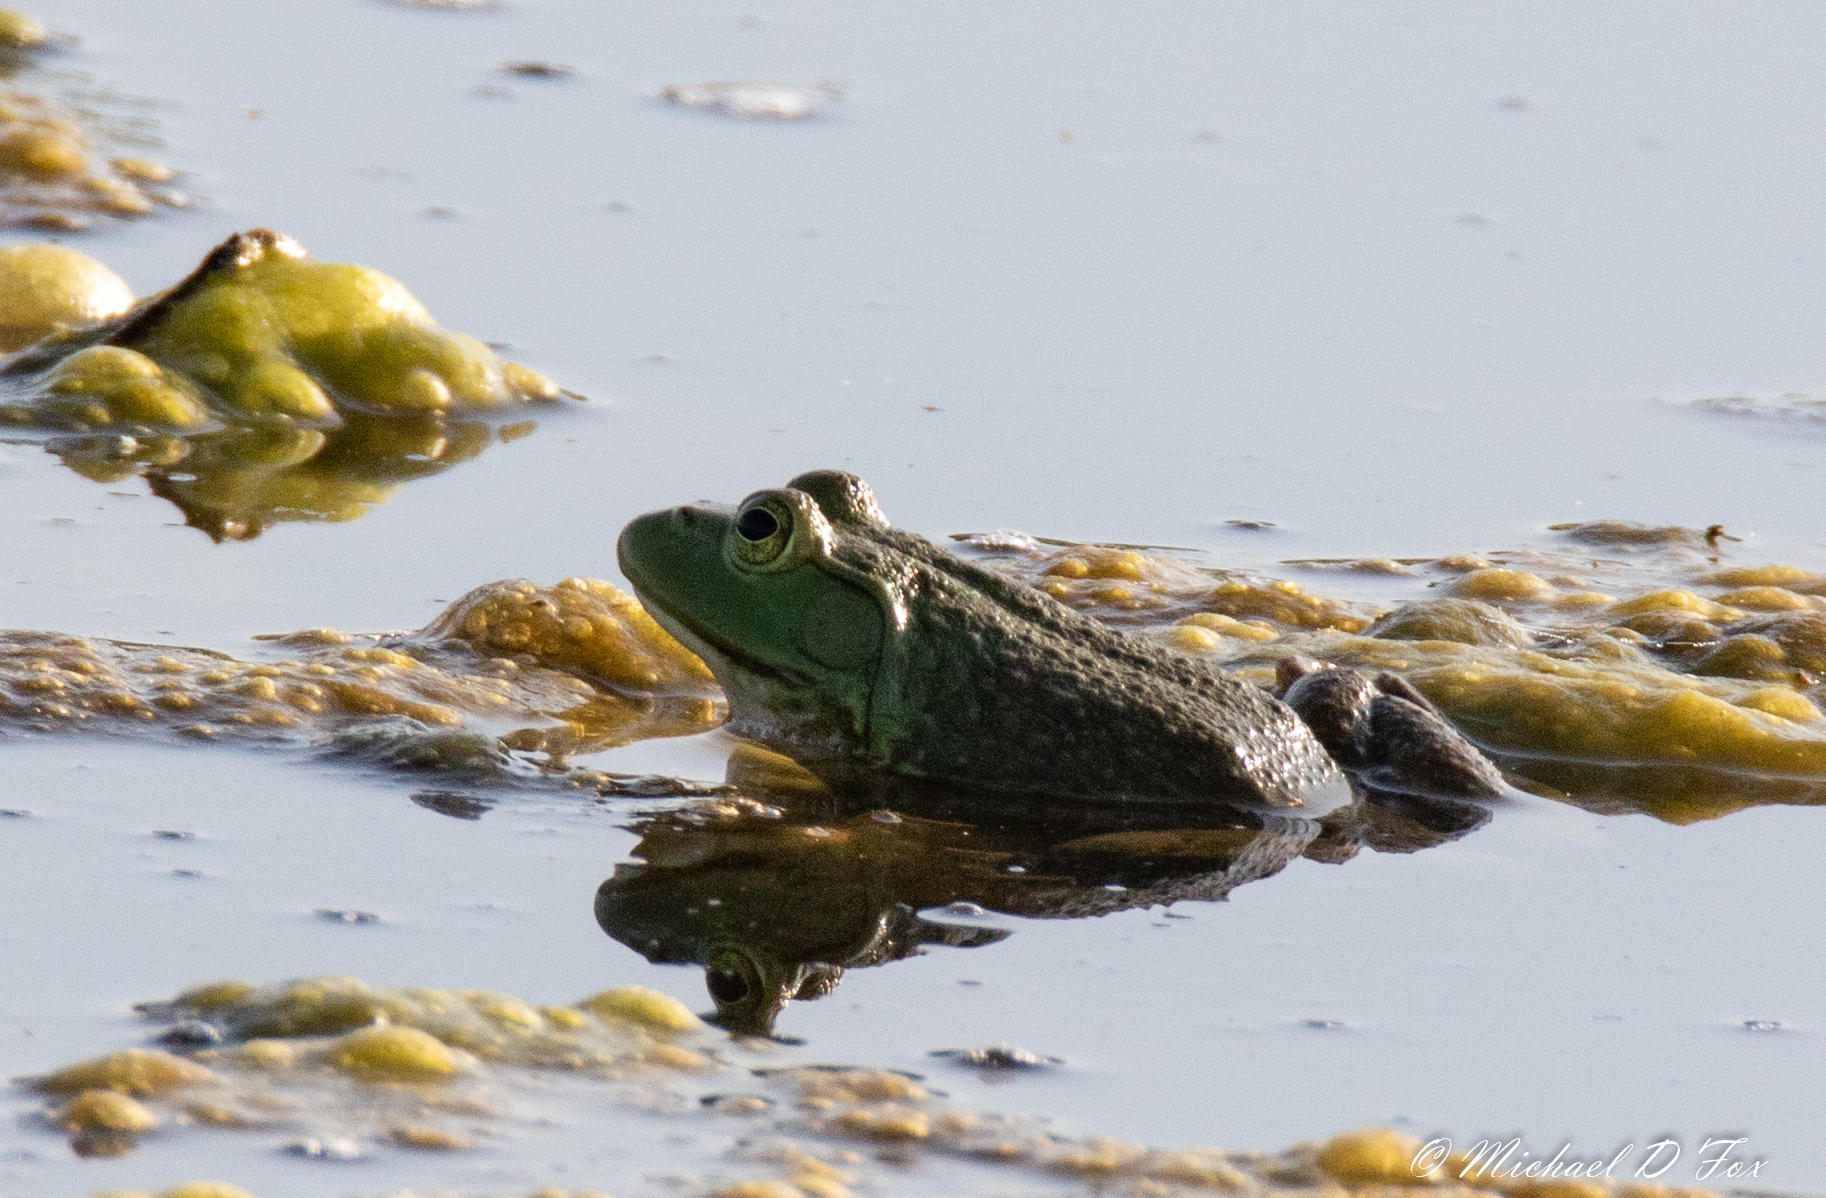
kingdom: Animalia
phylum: Chordata
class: Amphibia
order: Anura
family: Ranidae
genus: Lithobates
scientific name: Lithobates catesbeianus
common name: American bullfrog
